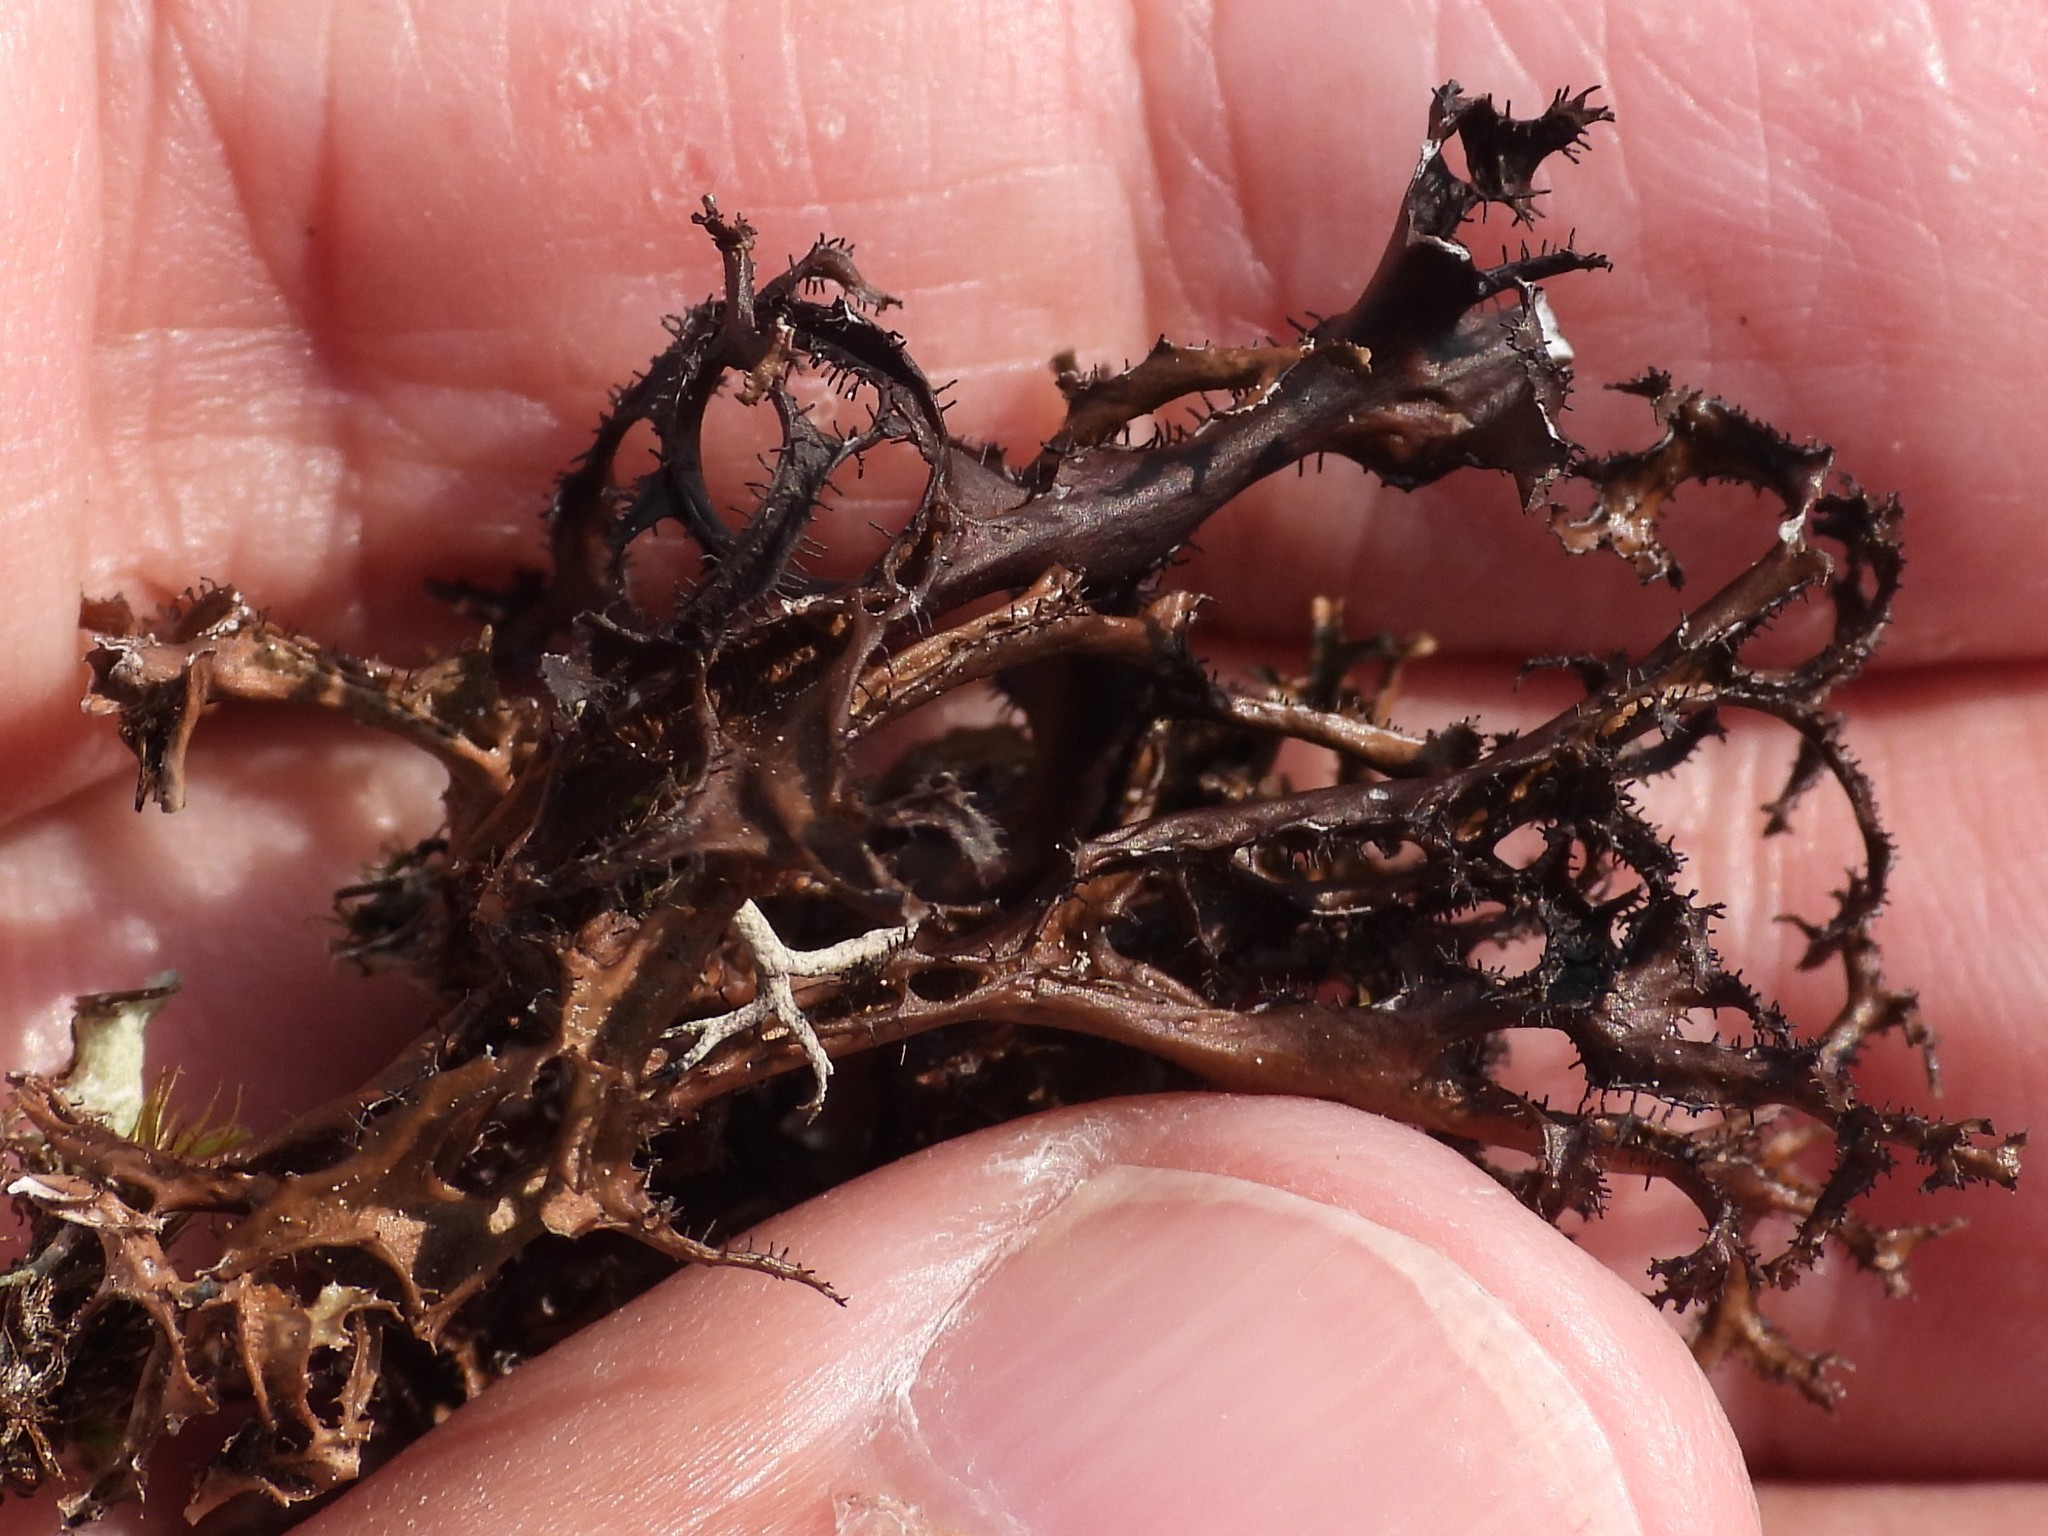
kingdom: Fungi
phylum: Ascomycota
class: Lecanoromycetes
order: Lecanorales
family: Parmeliaceae
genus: Cetraria
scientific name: Cetraria ericetorum
